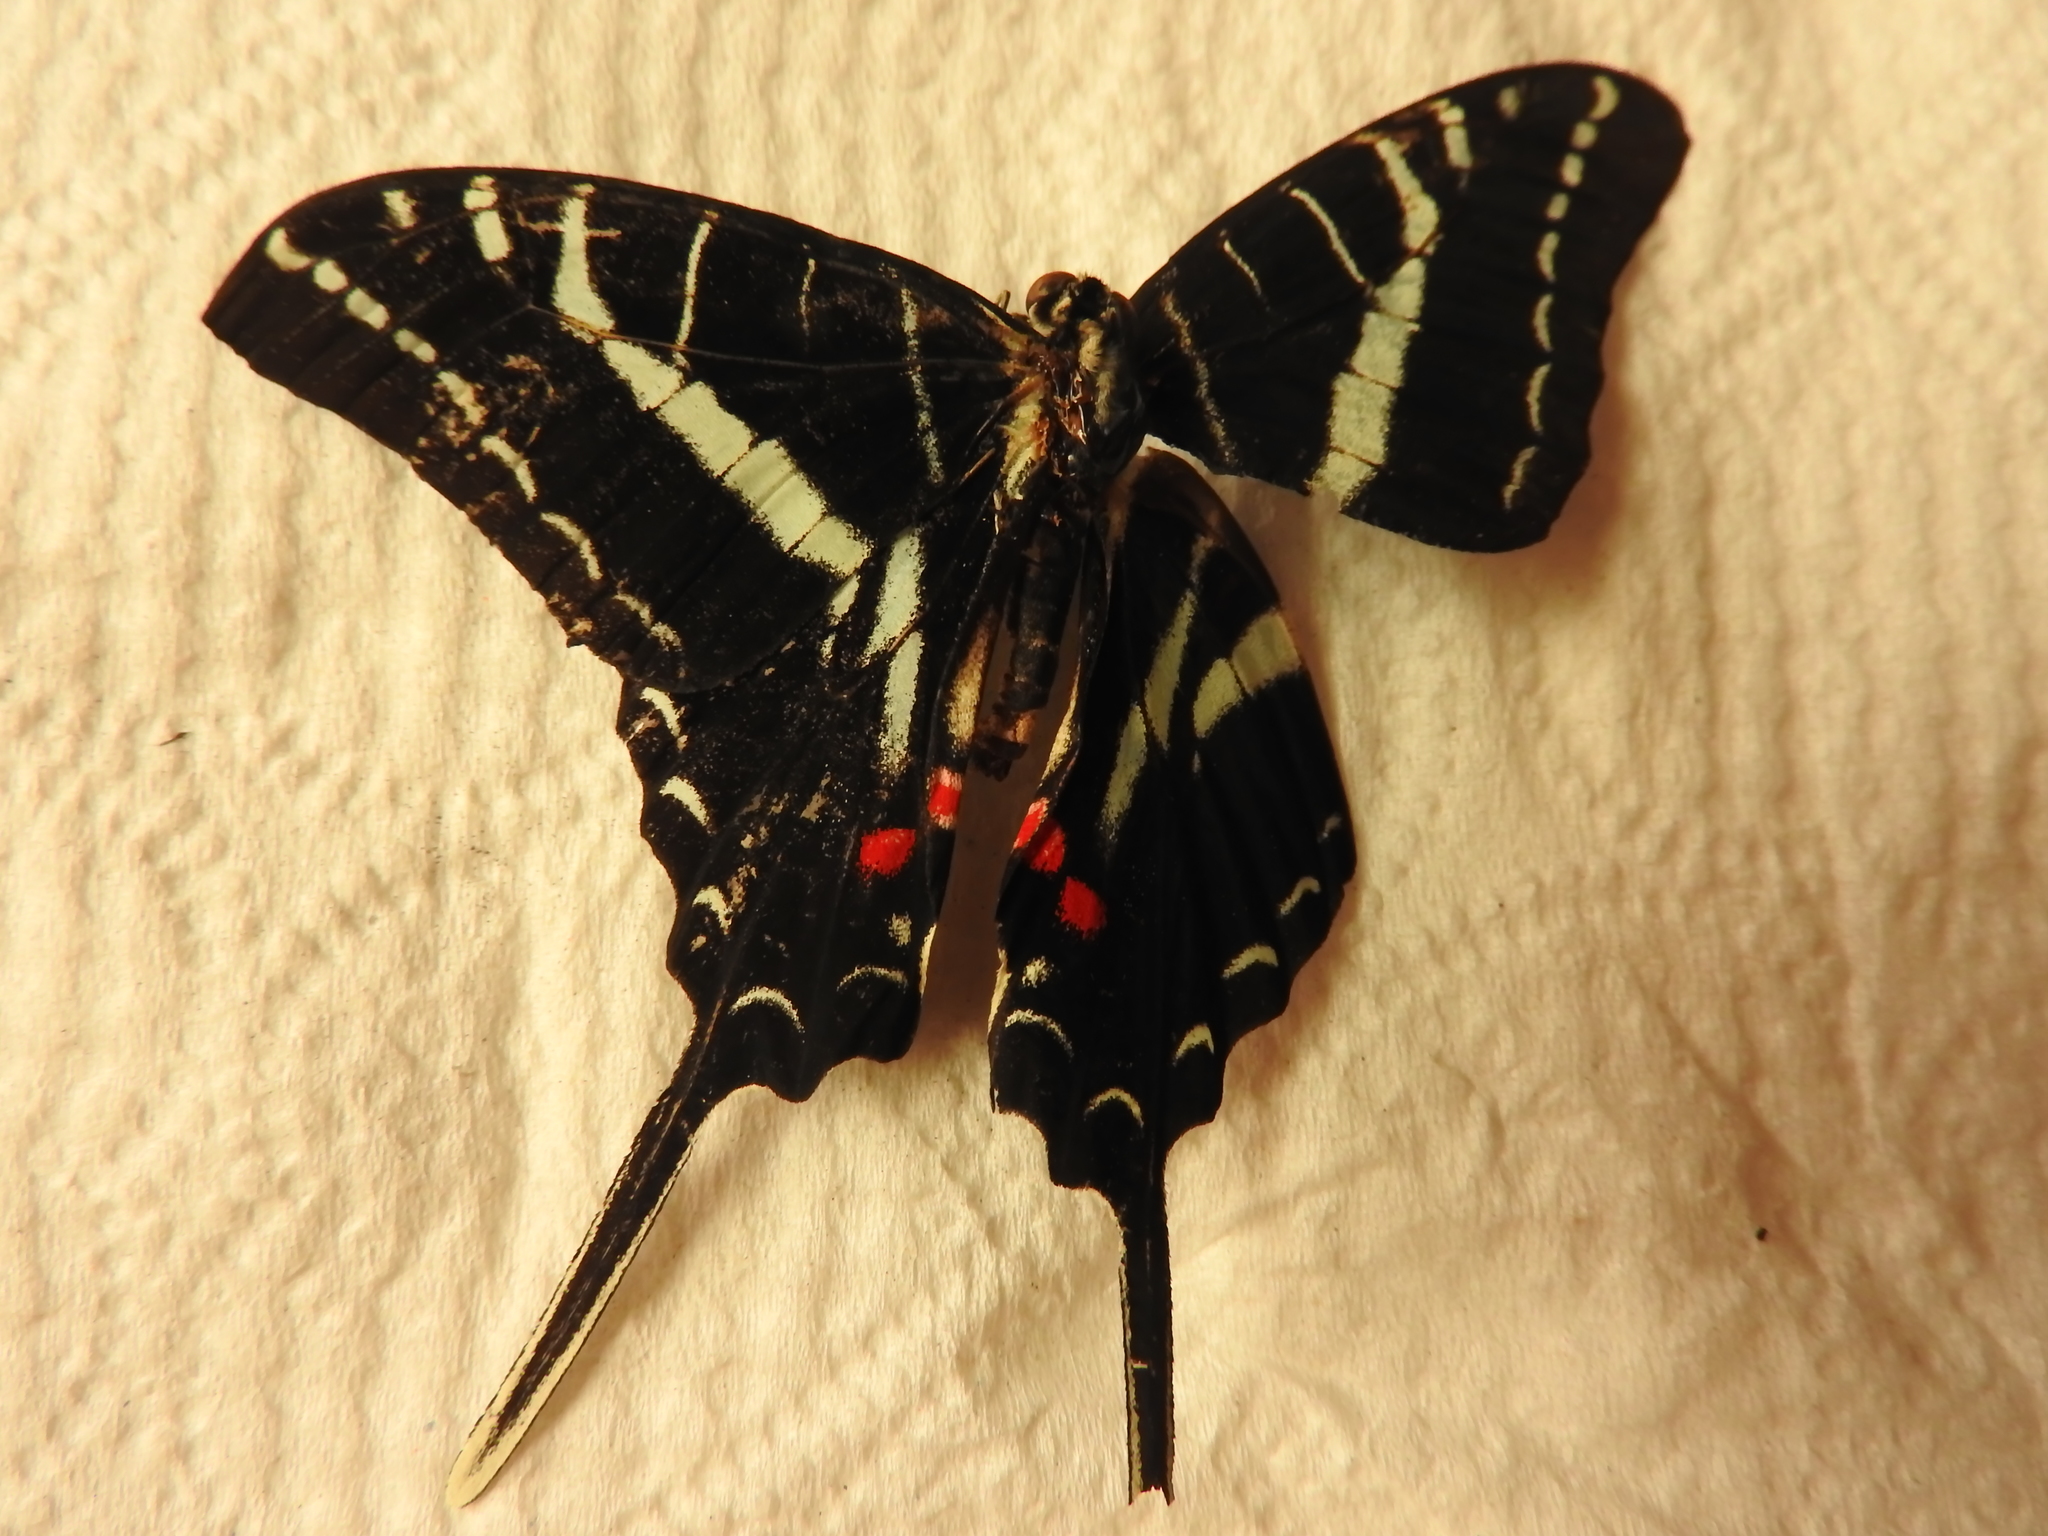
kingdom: Animalia
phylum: Arthropoda
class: Insecta
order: Lepidoptera
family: Papilionidae
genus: Protographium
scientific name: Protographium philolaus
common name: Dark zebra swallowtail
